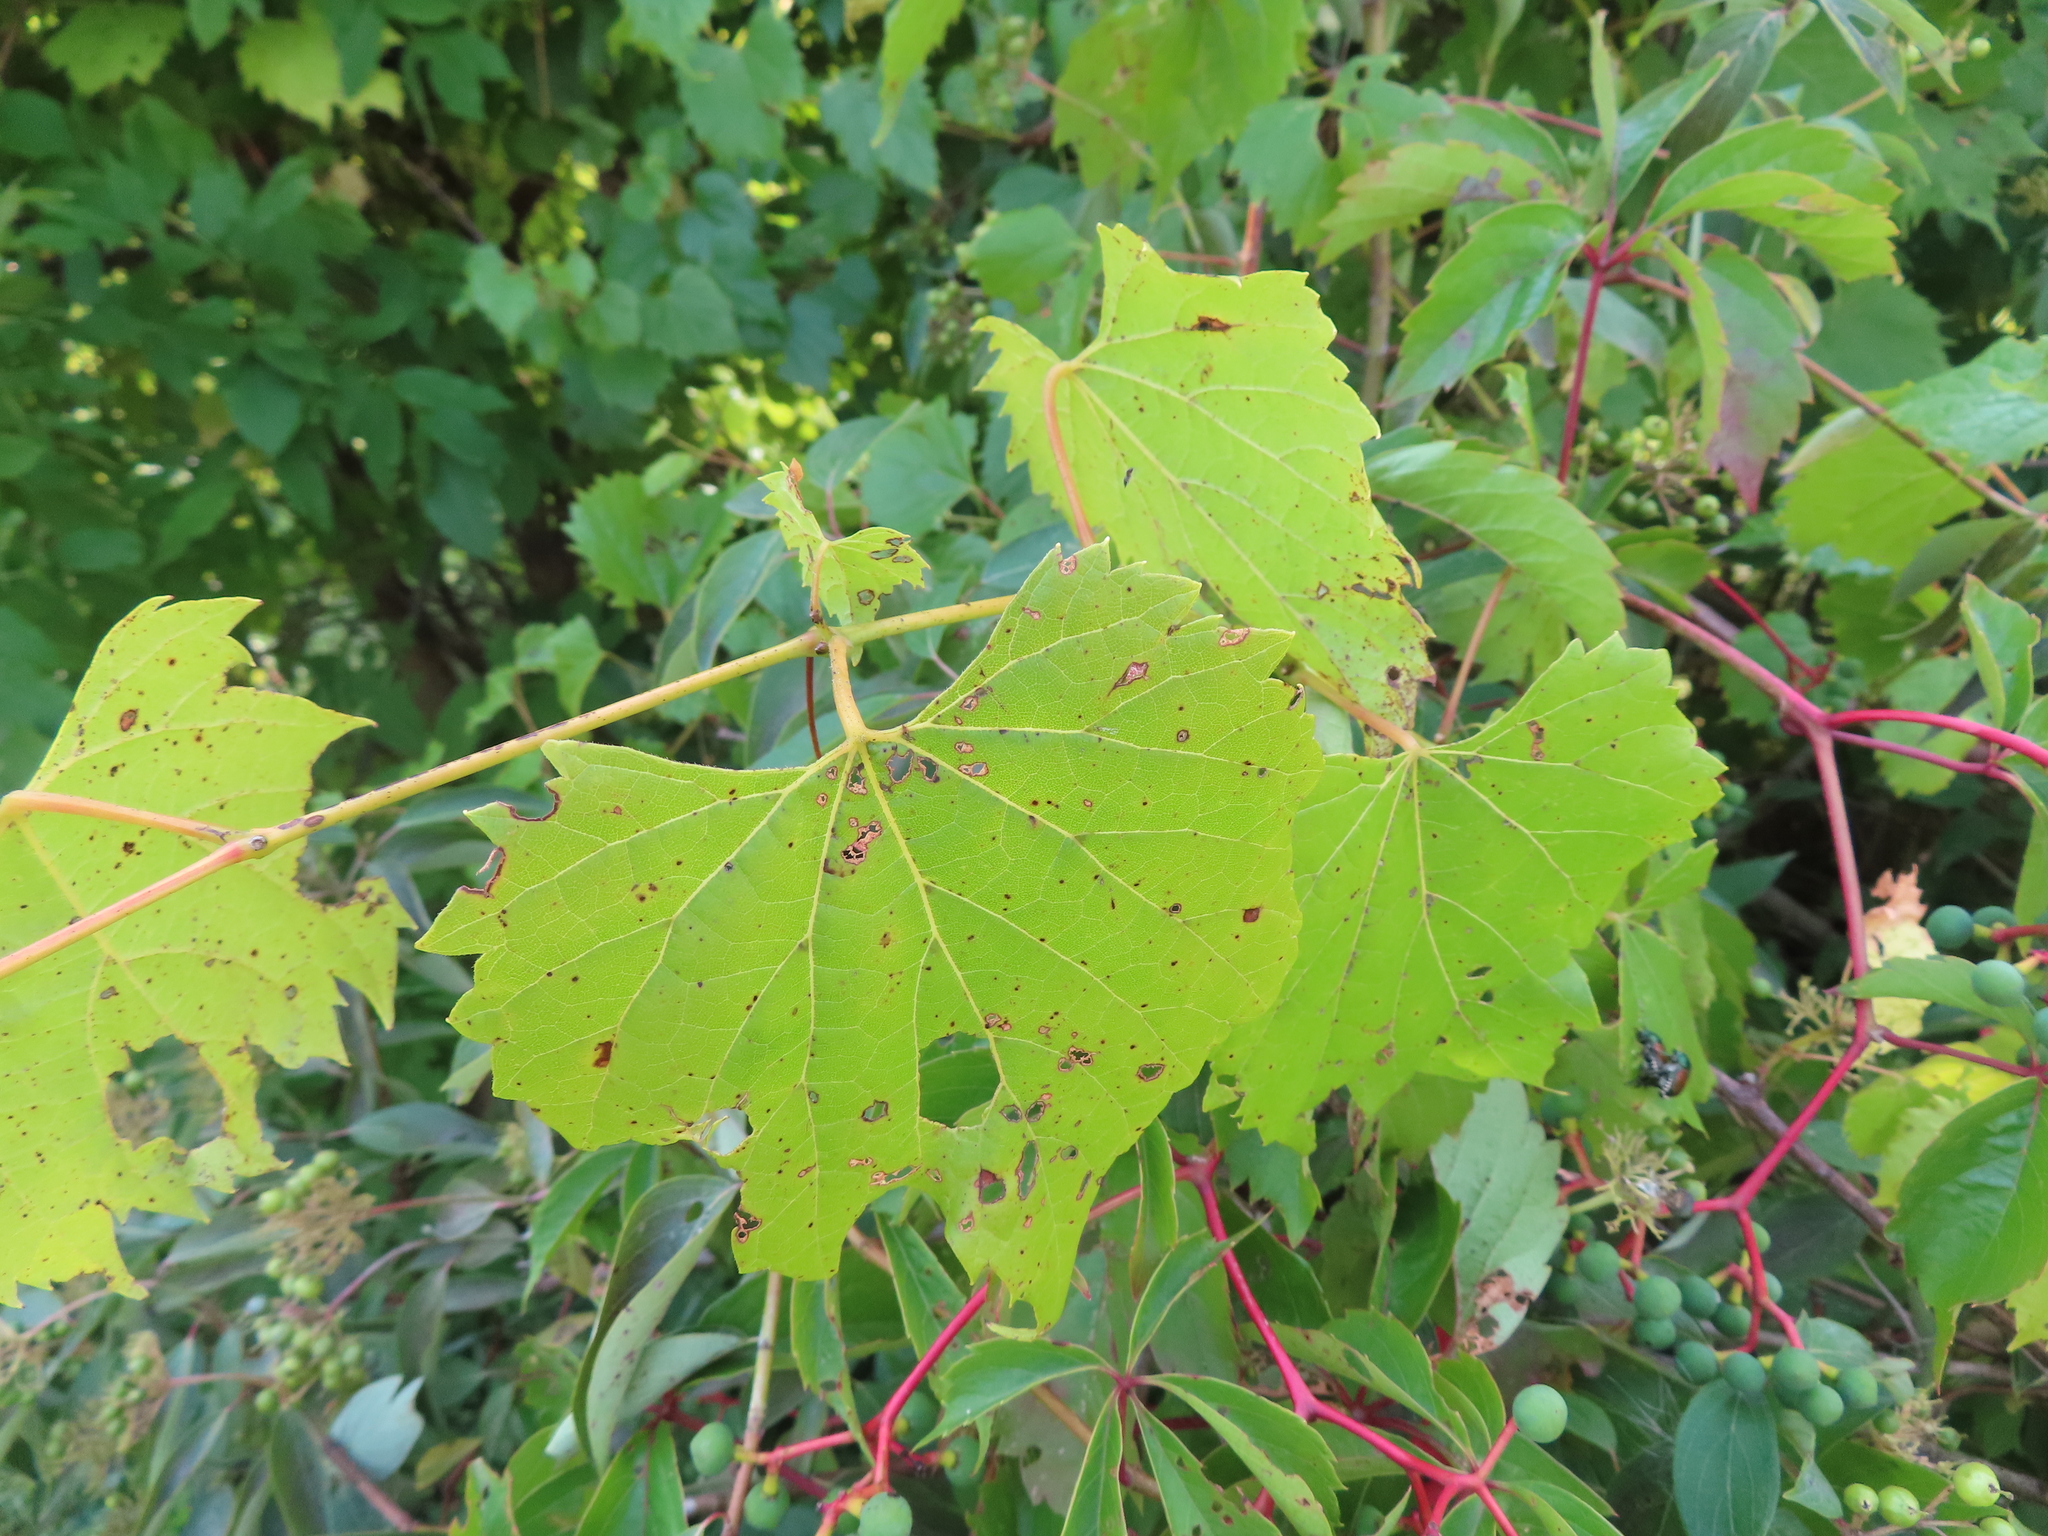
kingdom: Plantae
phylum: Tracheophyta
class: Magnoliopsida
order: Vitales
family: Vitaceae
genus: Vitis
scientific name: Vitis riparia
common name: Frost grape
